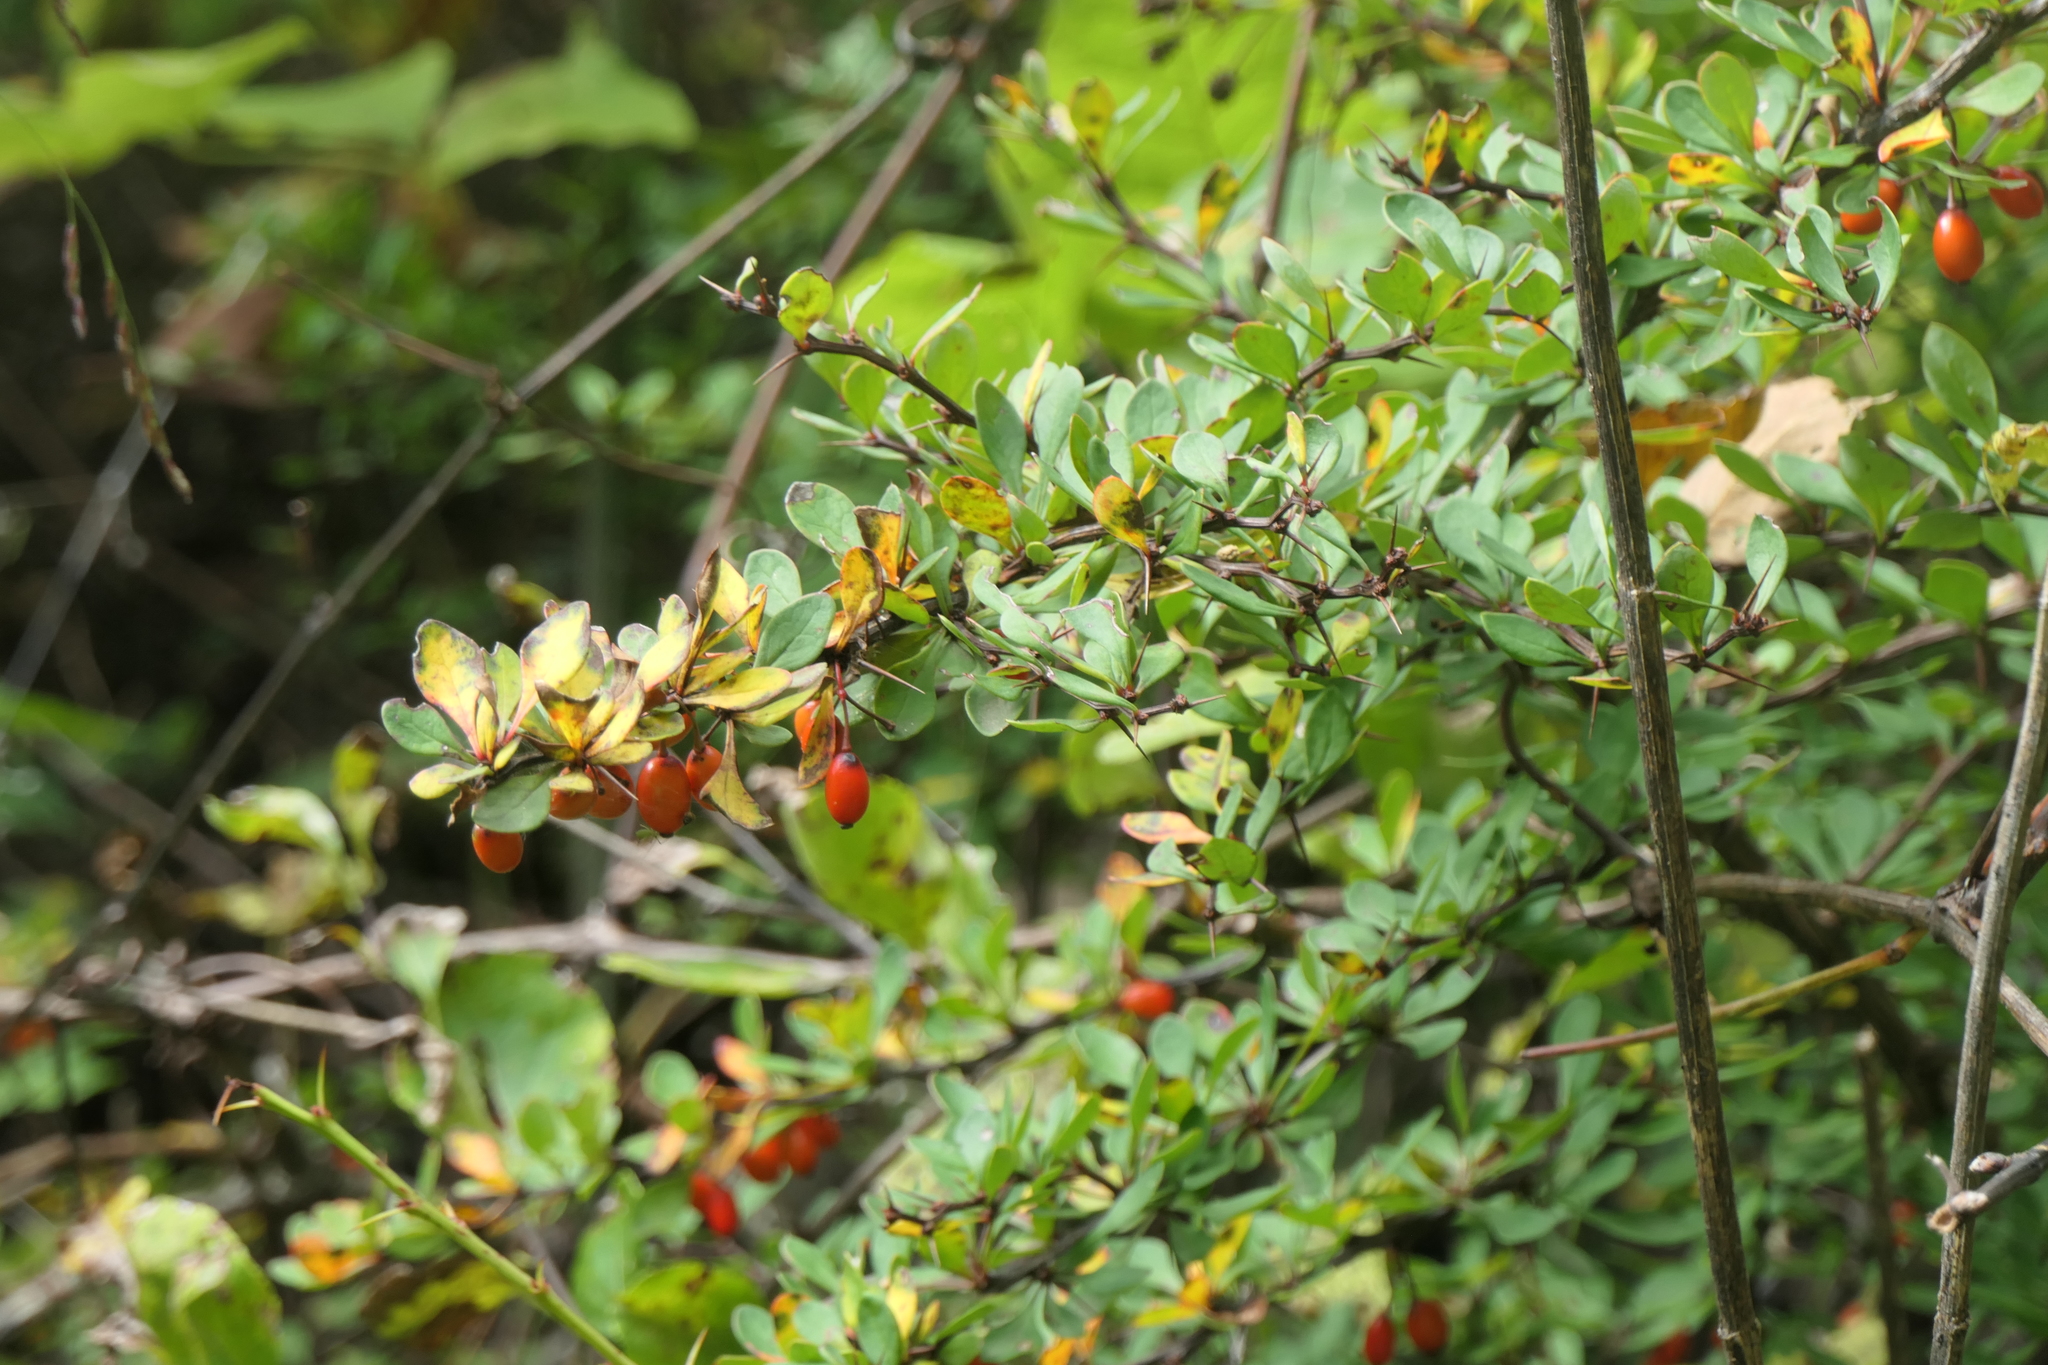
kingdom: Plantae
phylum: Tracheophyta
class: Magnoliopsida
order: Ranunculales
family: Berberidaceae
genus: Berberis
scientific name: Berberis thunbergii
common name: Japanese barberry
